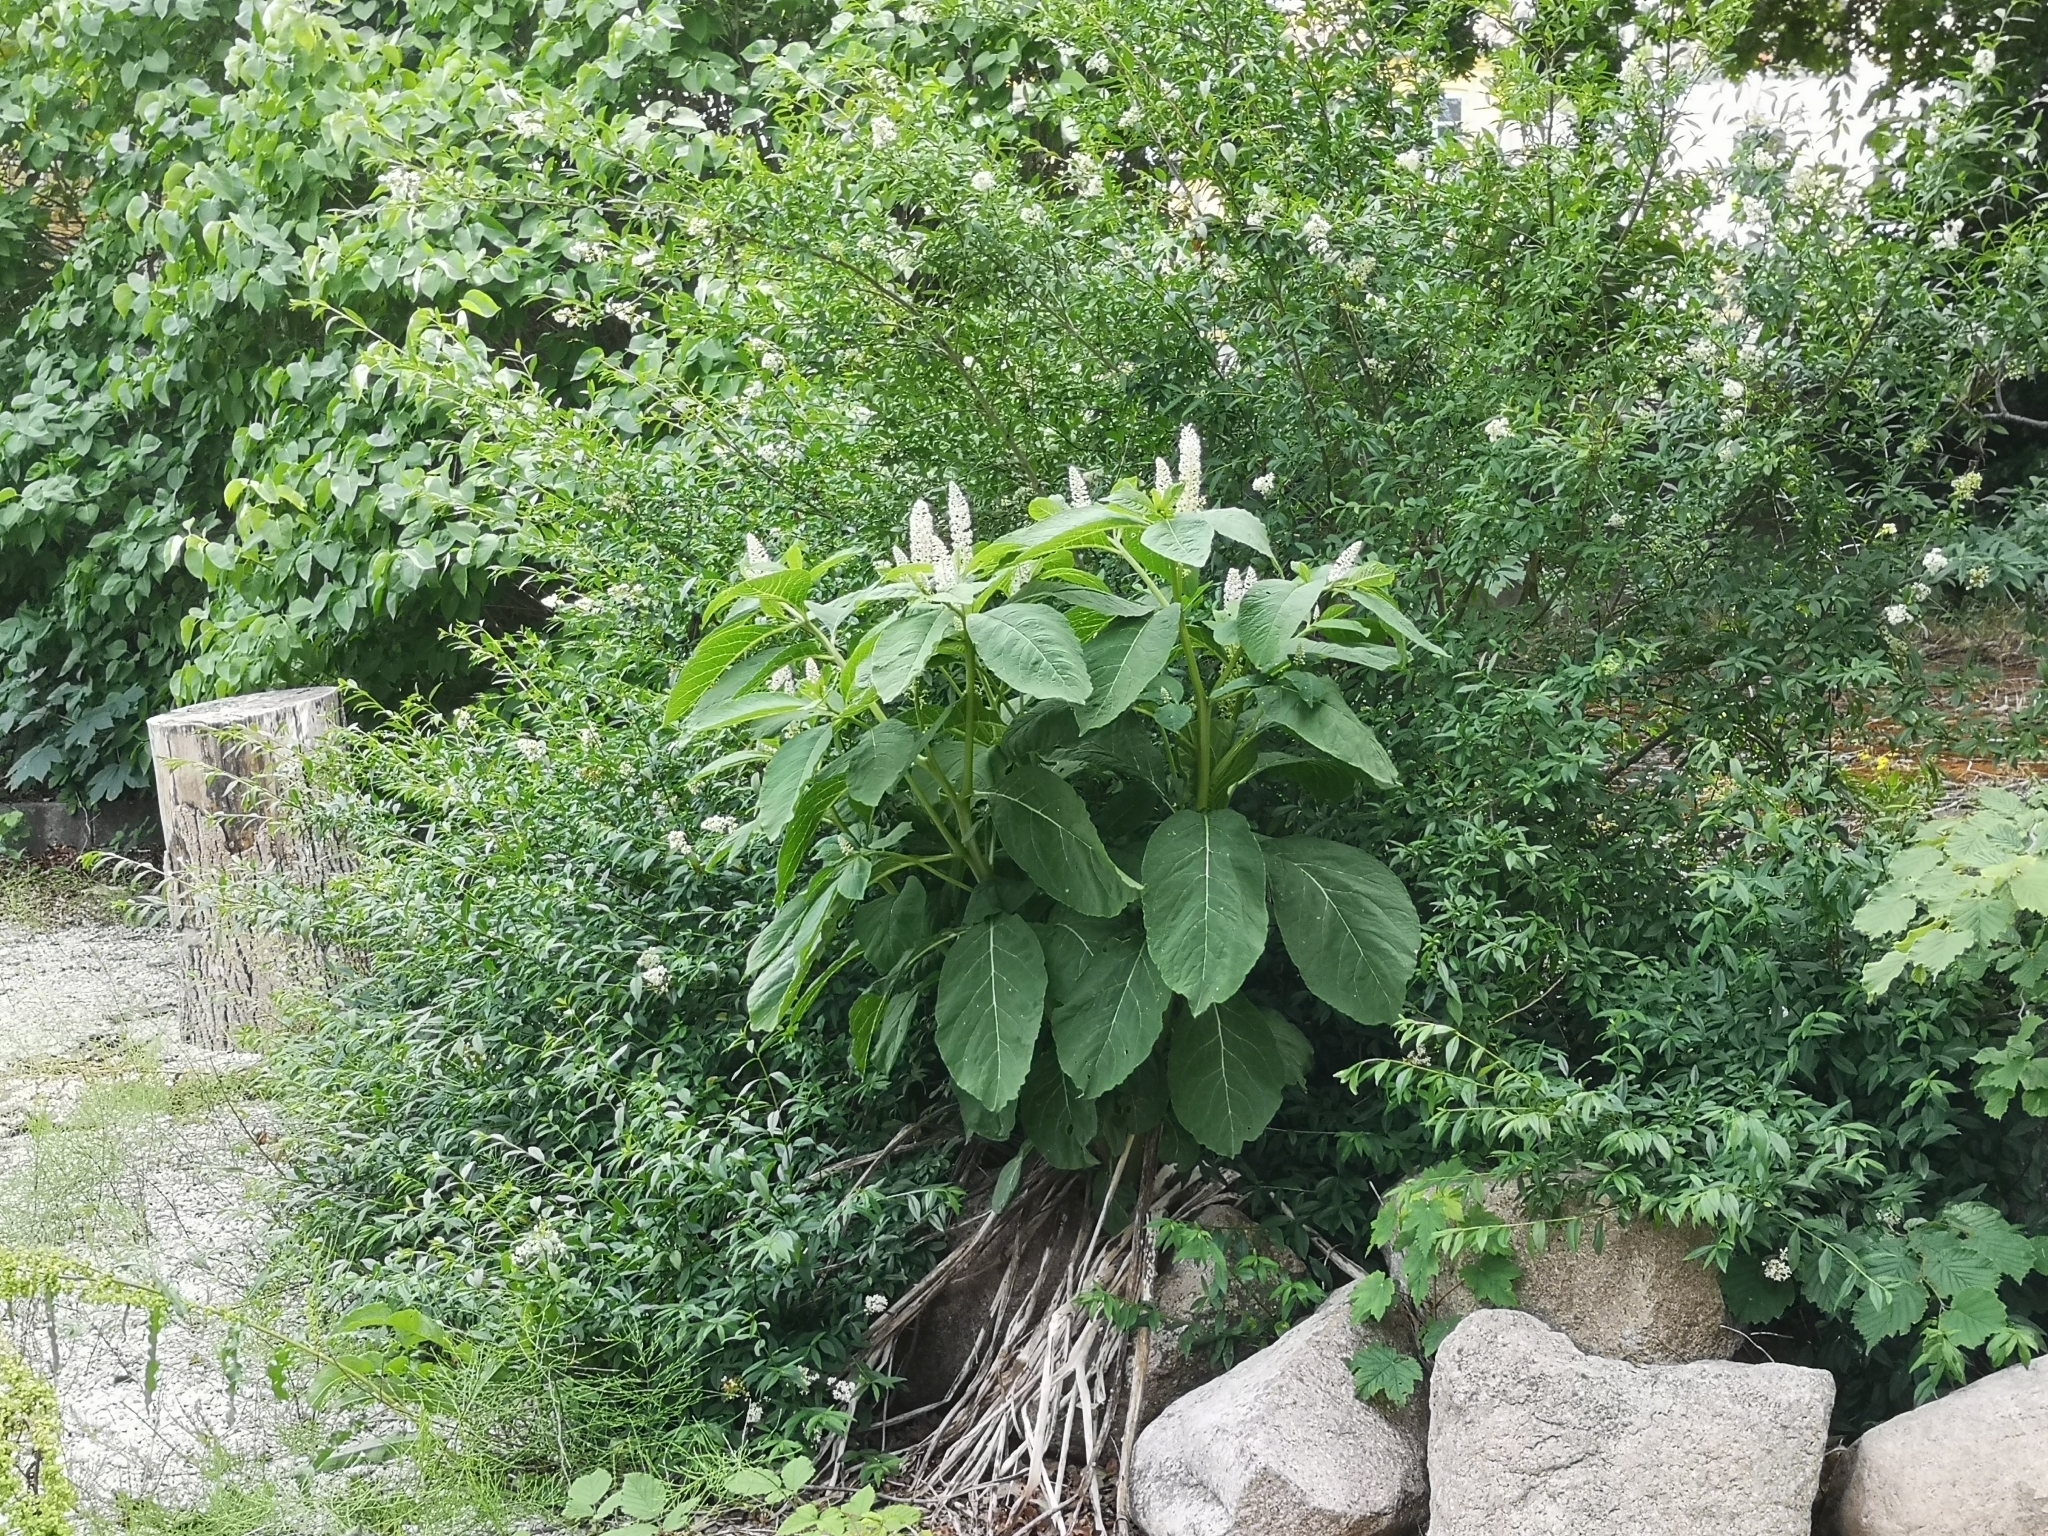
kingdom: Plantae
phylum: Tracheophyta
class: Magnoliopsida
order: Caryophyllales
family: Phytolaccaceae
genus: Phytolacca
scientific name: Phytolacca acinosa
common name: Indian pokeweed
